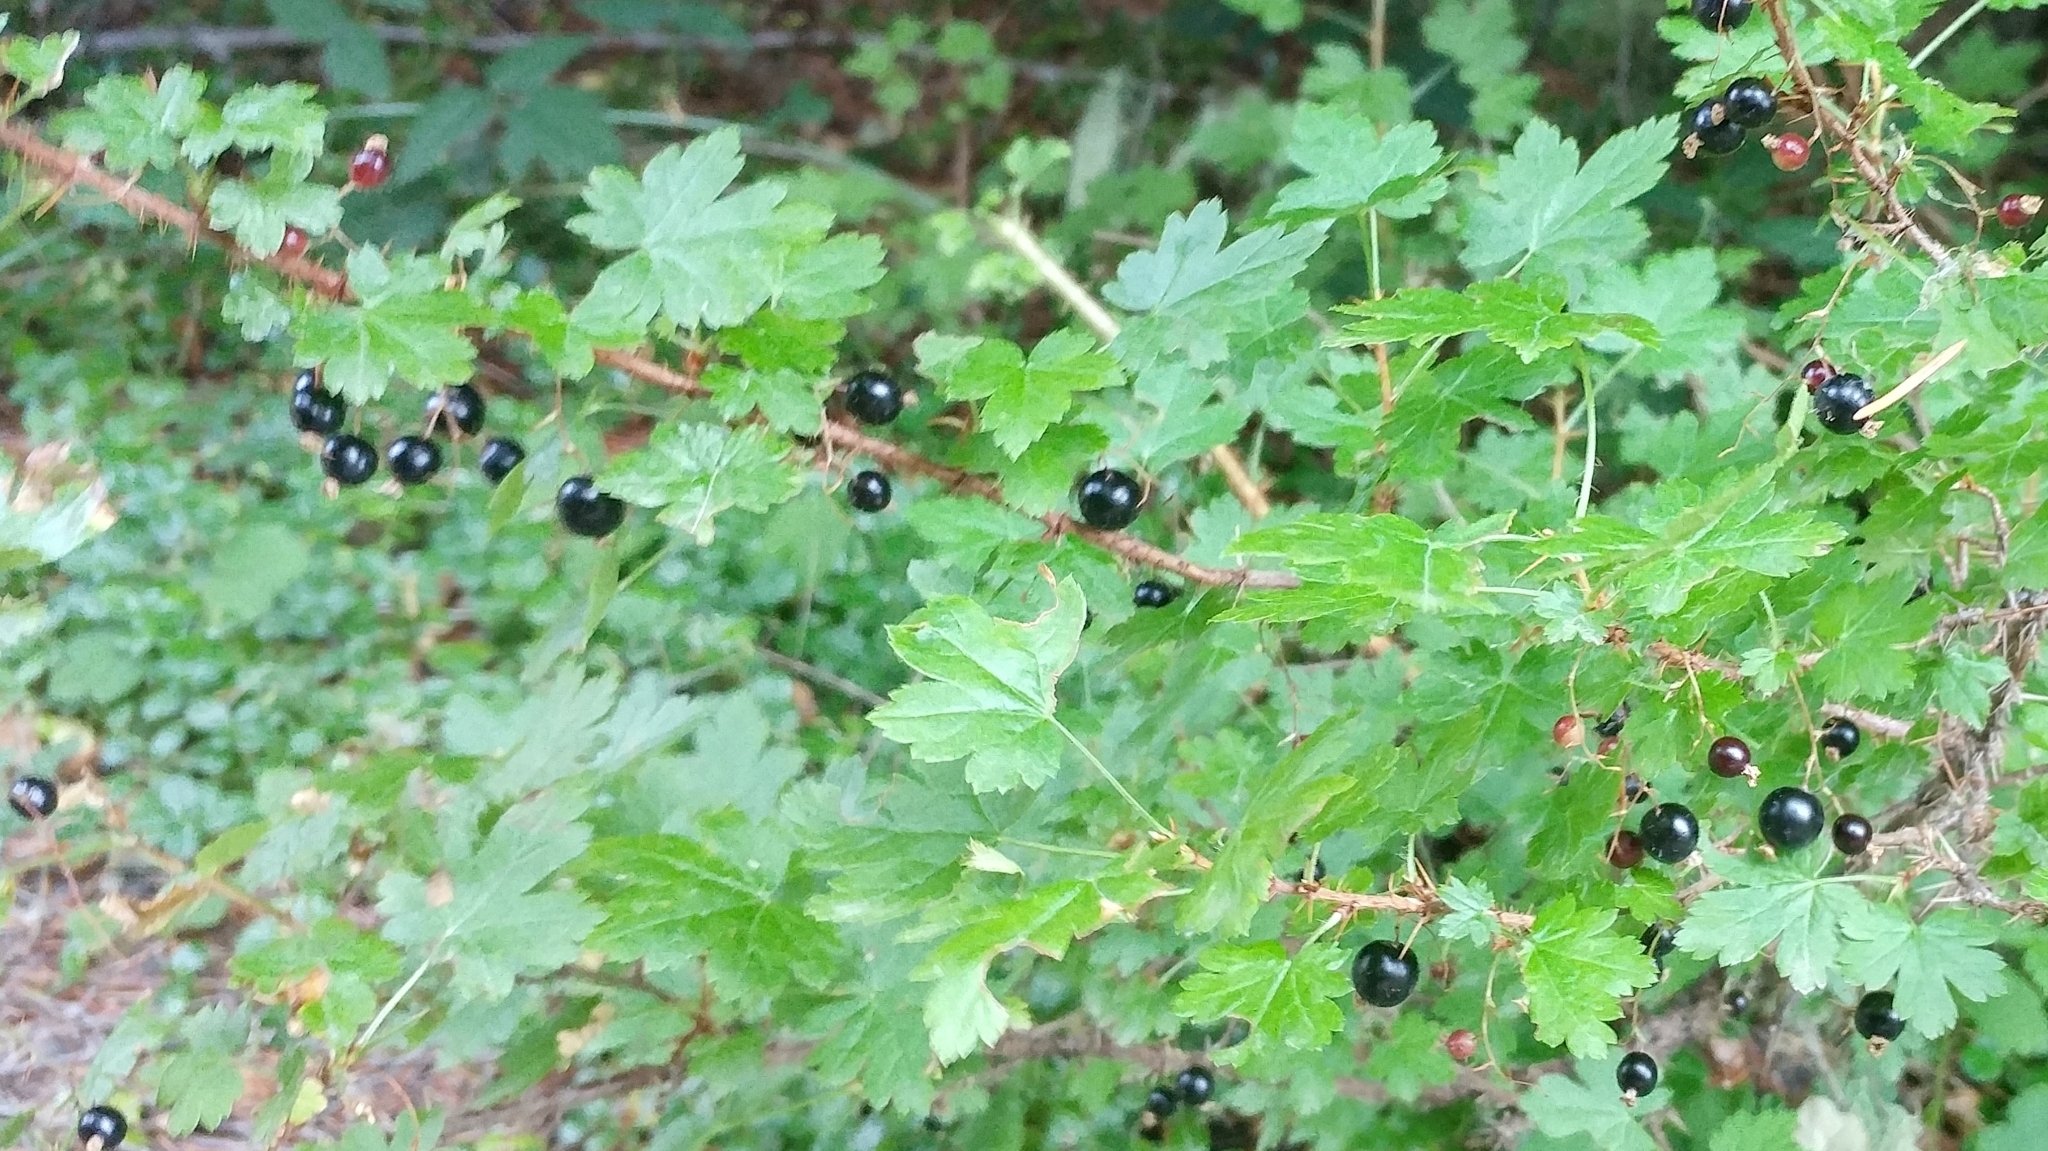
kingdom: Plantae
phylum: Tracheophyta
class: Magnoliopsida
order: Saxifragales
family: Grossulariaceae
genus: Ribes
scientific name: Ribes lacustre
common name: Black gooseberry
